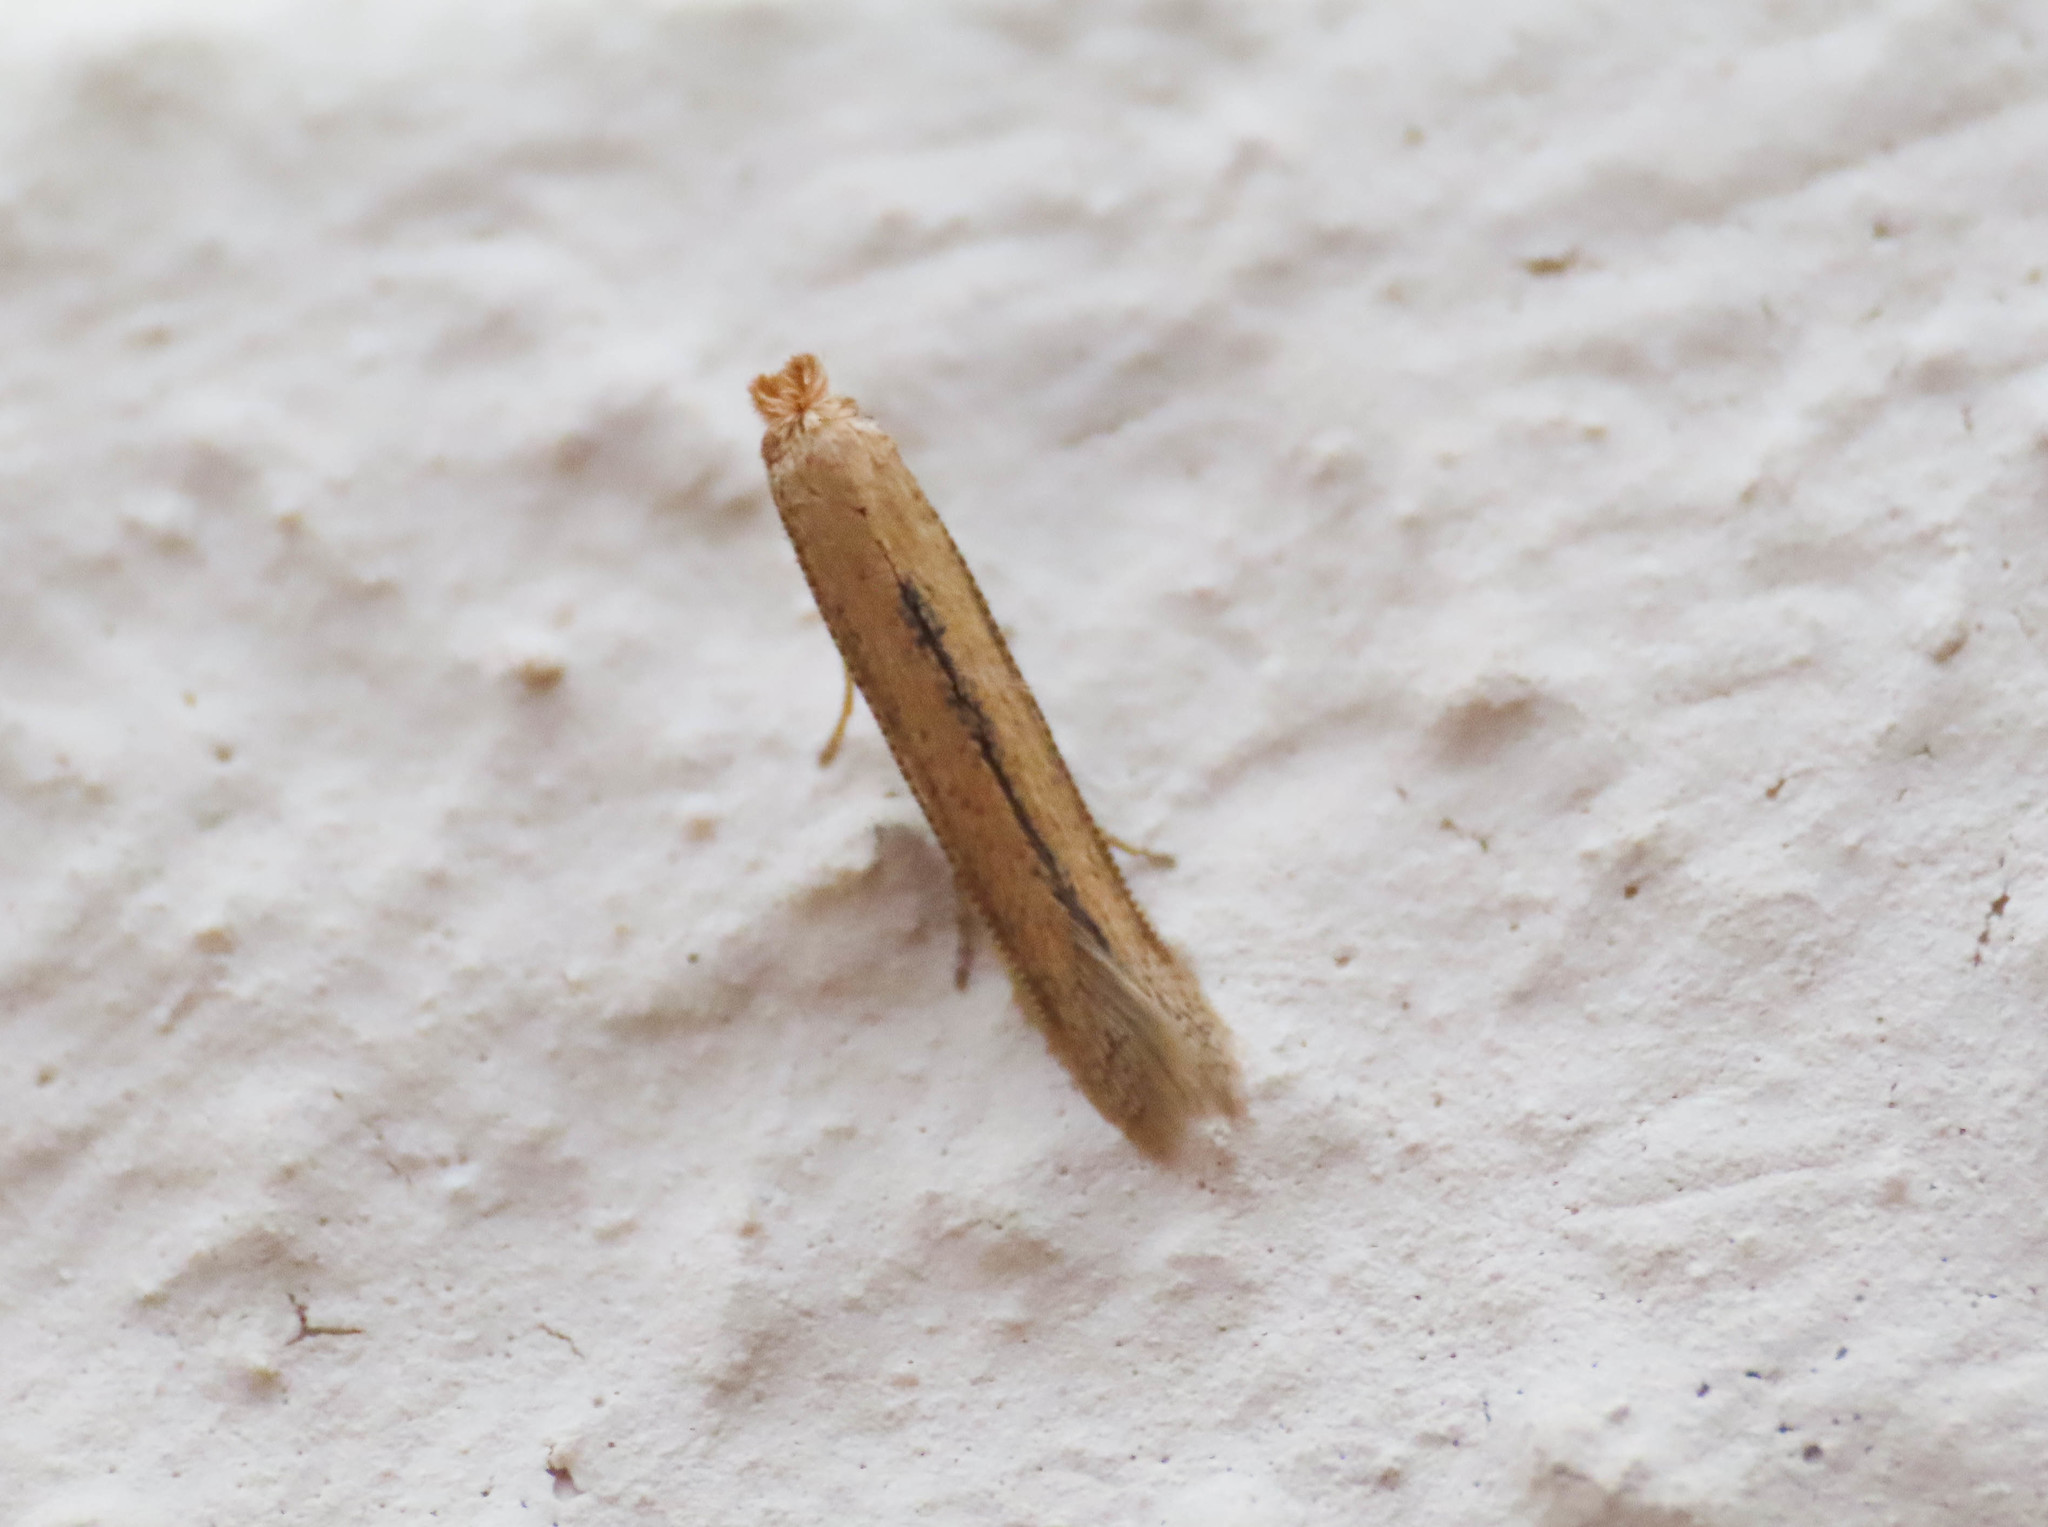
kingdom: Animalia
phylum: Arthropoda
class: Insecta
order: Lepidoptera
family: Bedelliidae
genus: Bedellia
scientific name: Bedellia somnulentella
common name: Morning-glory leafminer moth
